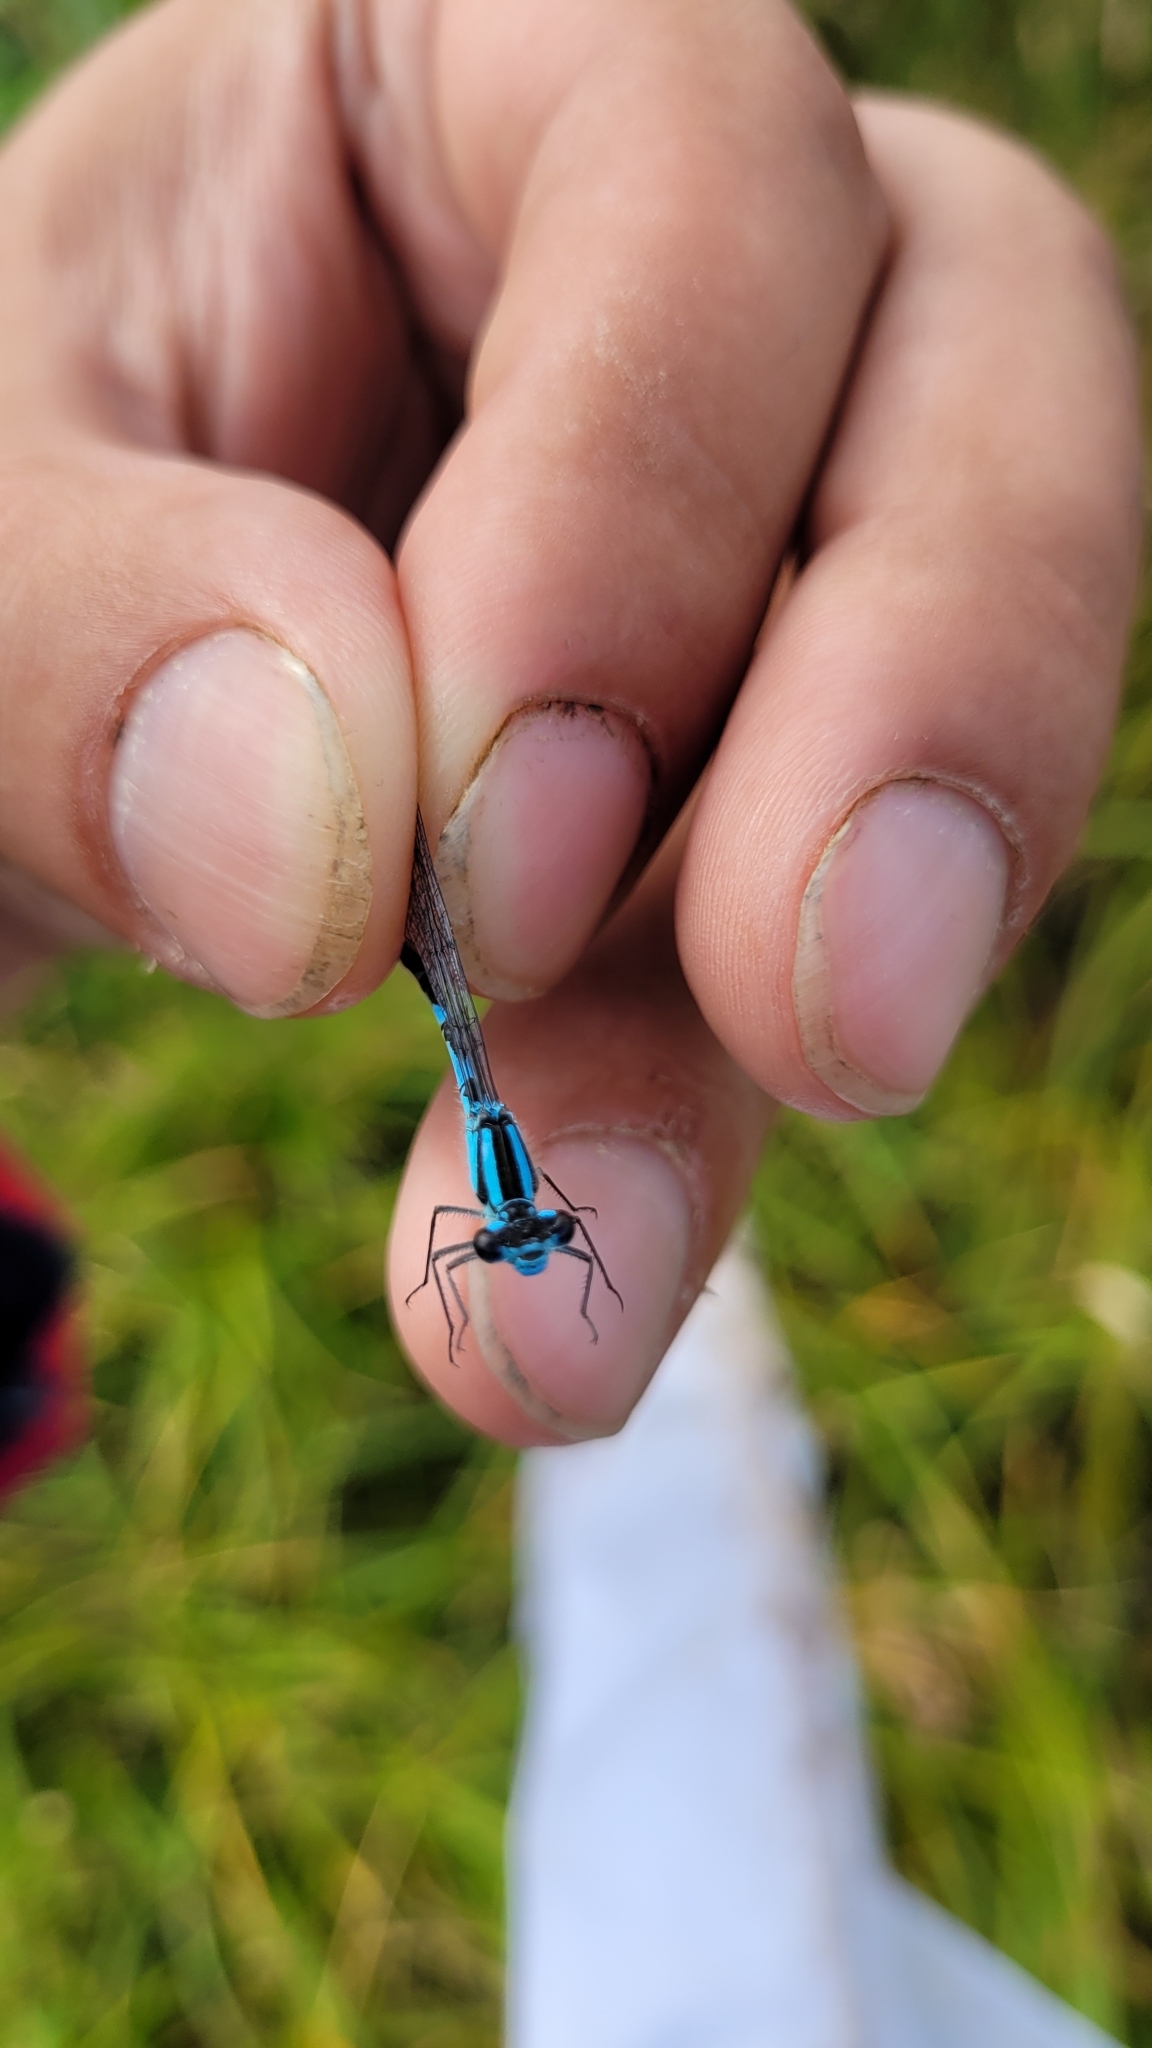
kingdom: Animalia
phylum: Arthropoda
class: Insecta
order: Odonata
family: Coenagrionidae
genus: Enallagma
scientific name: Enallagma circulatum
